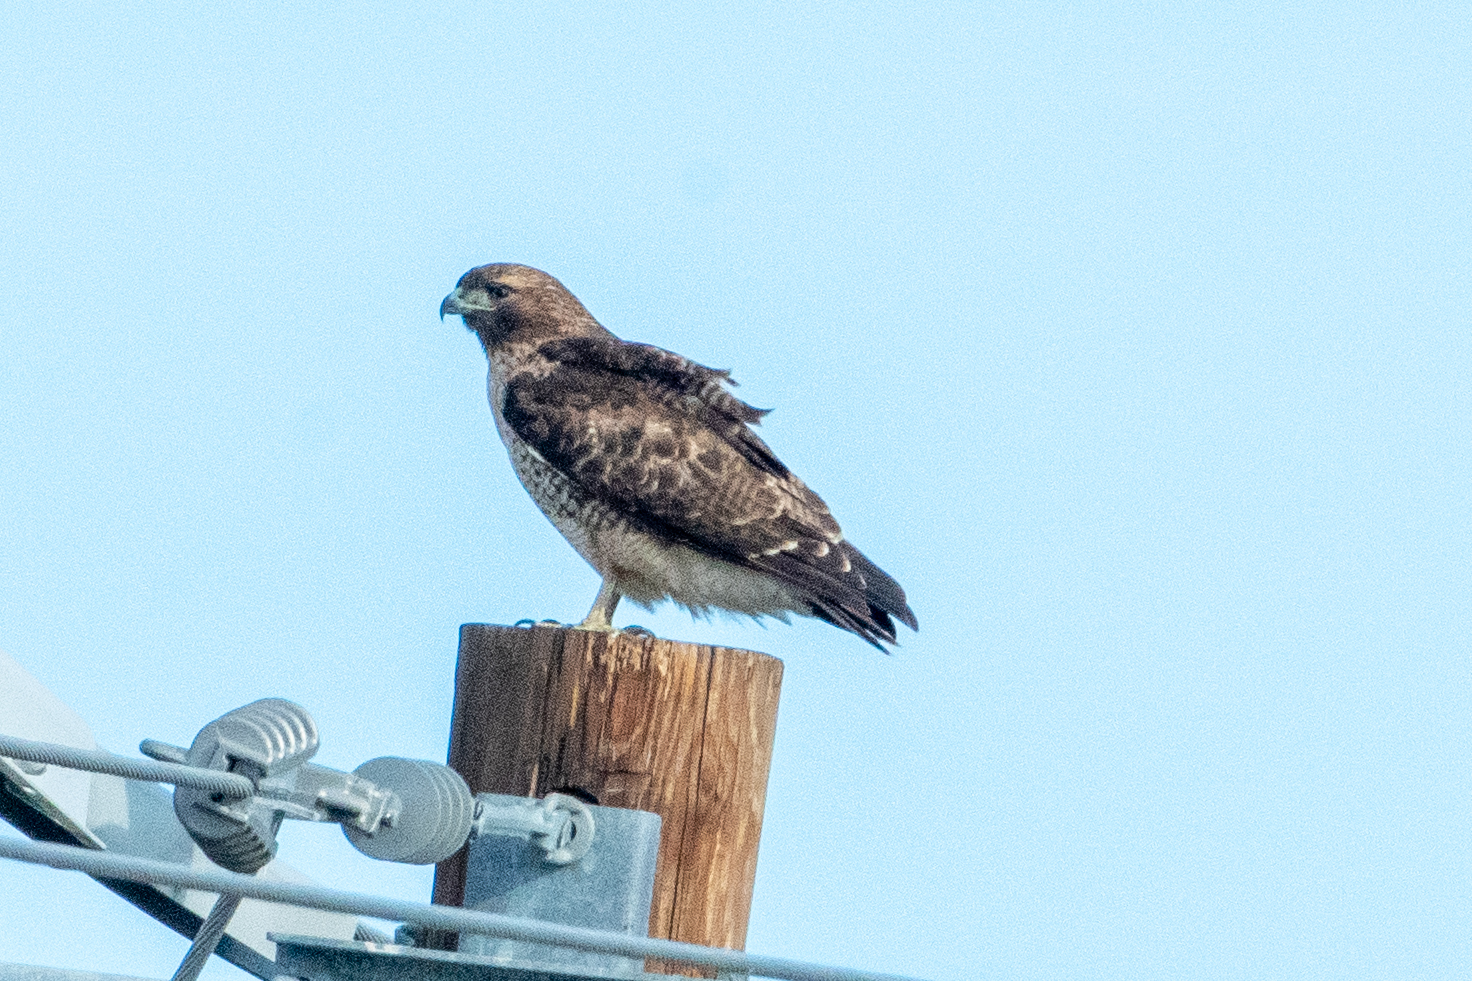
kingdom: Animalia
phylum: Chordata
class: Aves
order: Accipitriformes
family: Accipitridae
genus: Buteo
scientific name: Buteo jamaicensis
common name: Red-tailed hawk
